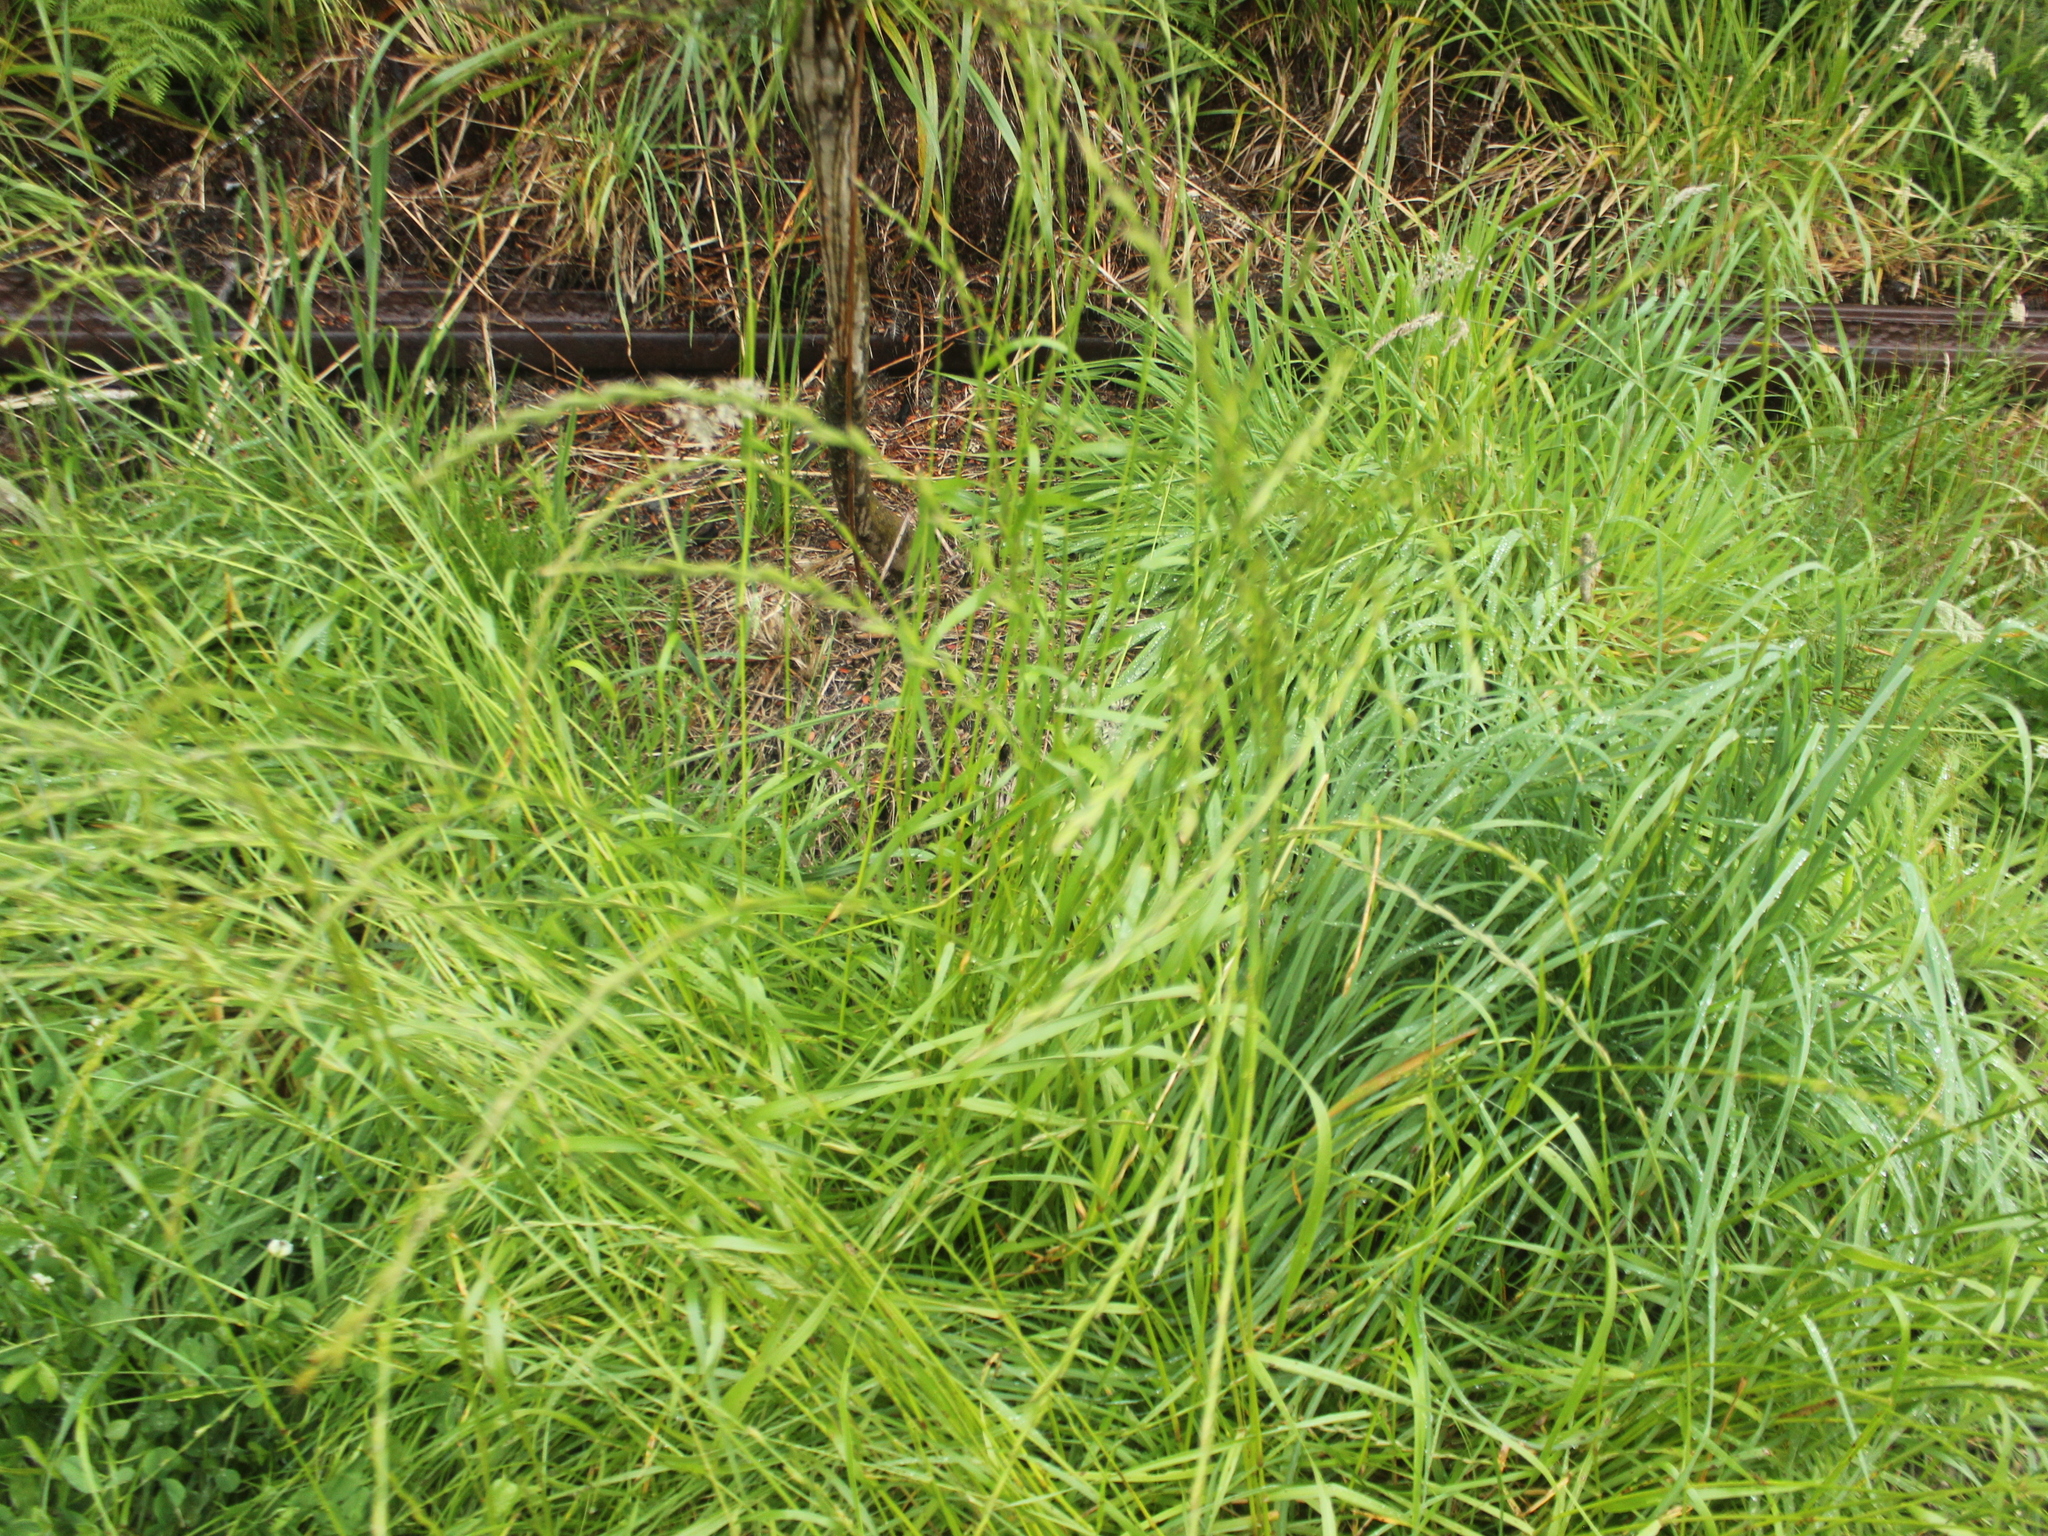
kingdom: Plantae
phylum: Tracheophyta
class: Liliopsida
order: Poales
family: Poaceae
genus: Lolium
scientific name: Lolium multiflorum
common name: Annual ryegrass
